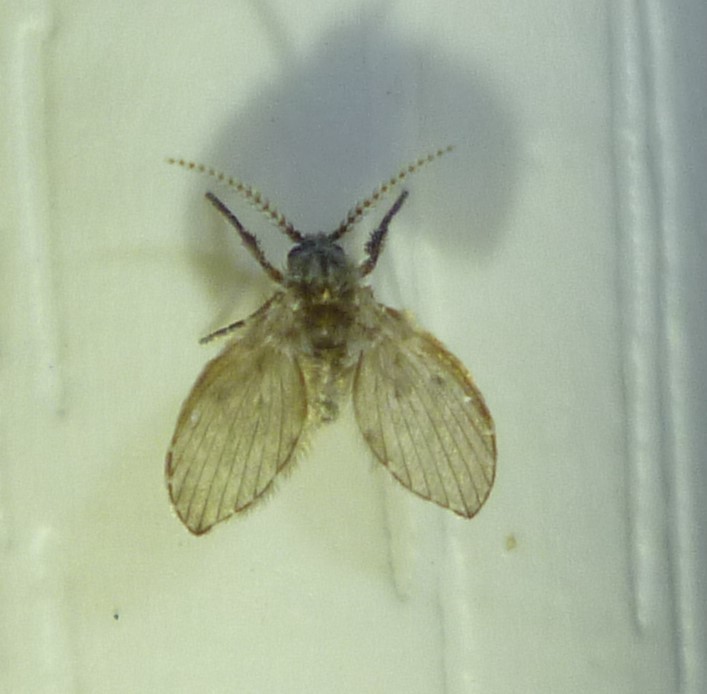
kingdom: Animalia
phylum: Arthropoda
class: Insecta
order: Diptera
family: Psychodidae
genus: Clogmia
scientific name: Clogmia albipunctatus
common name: White-spotted moth fly
